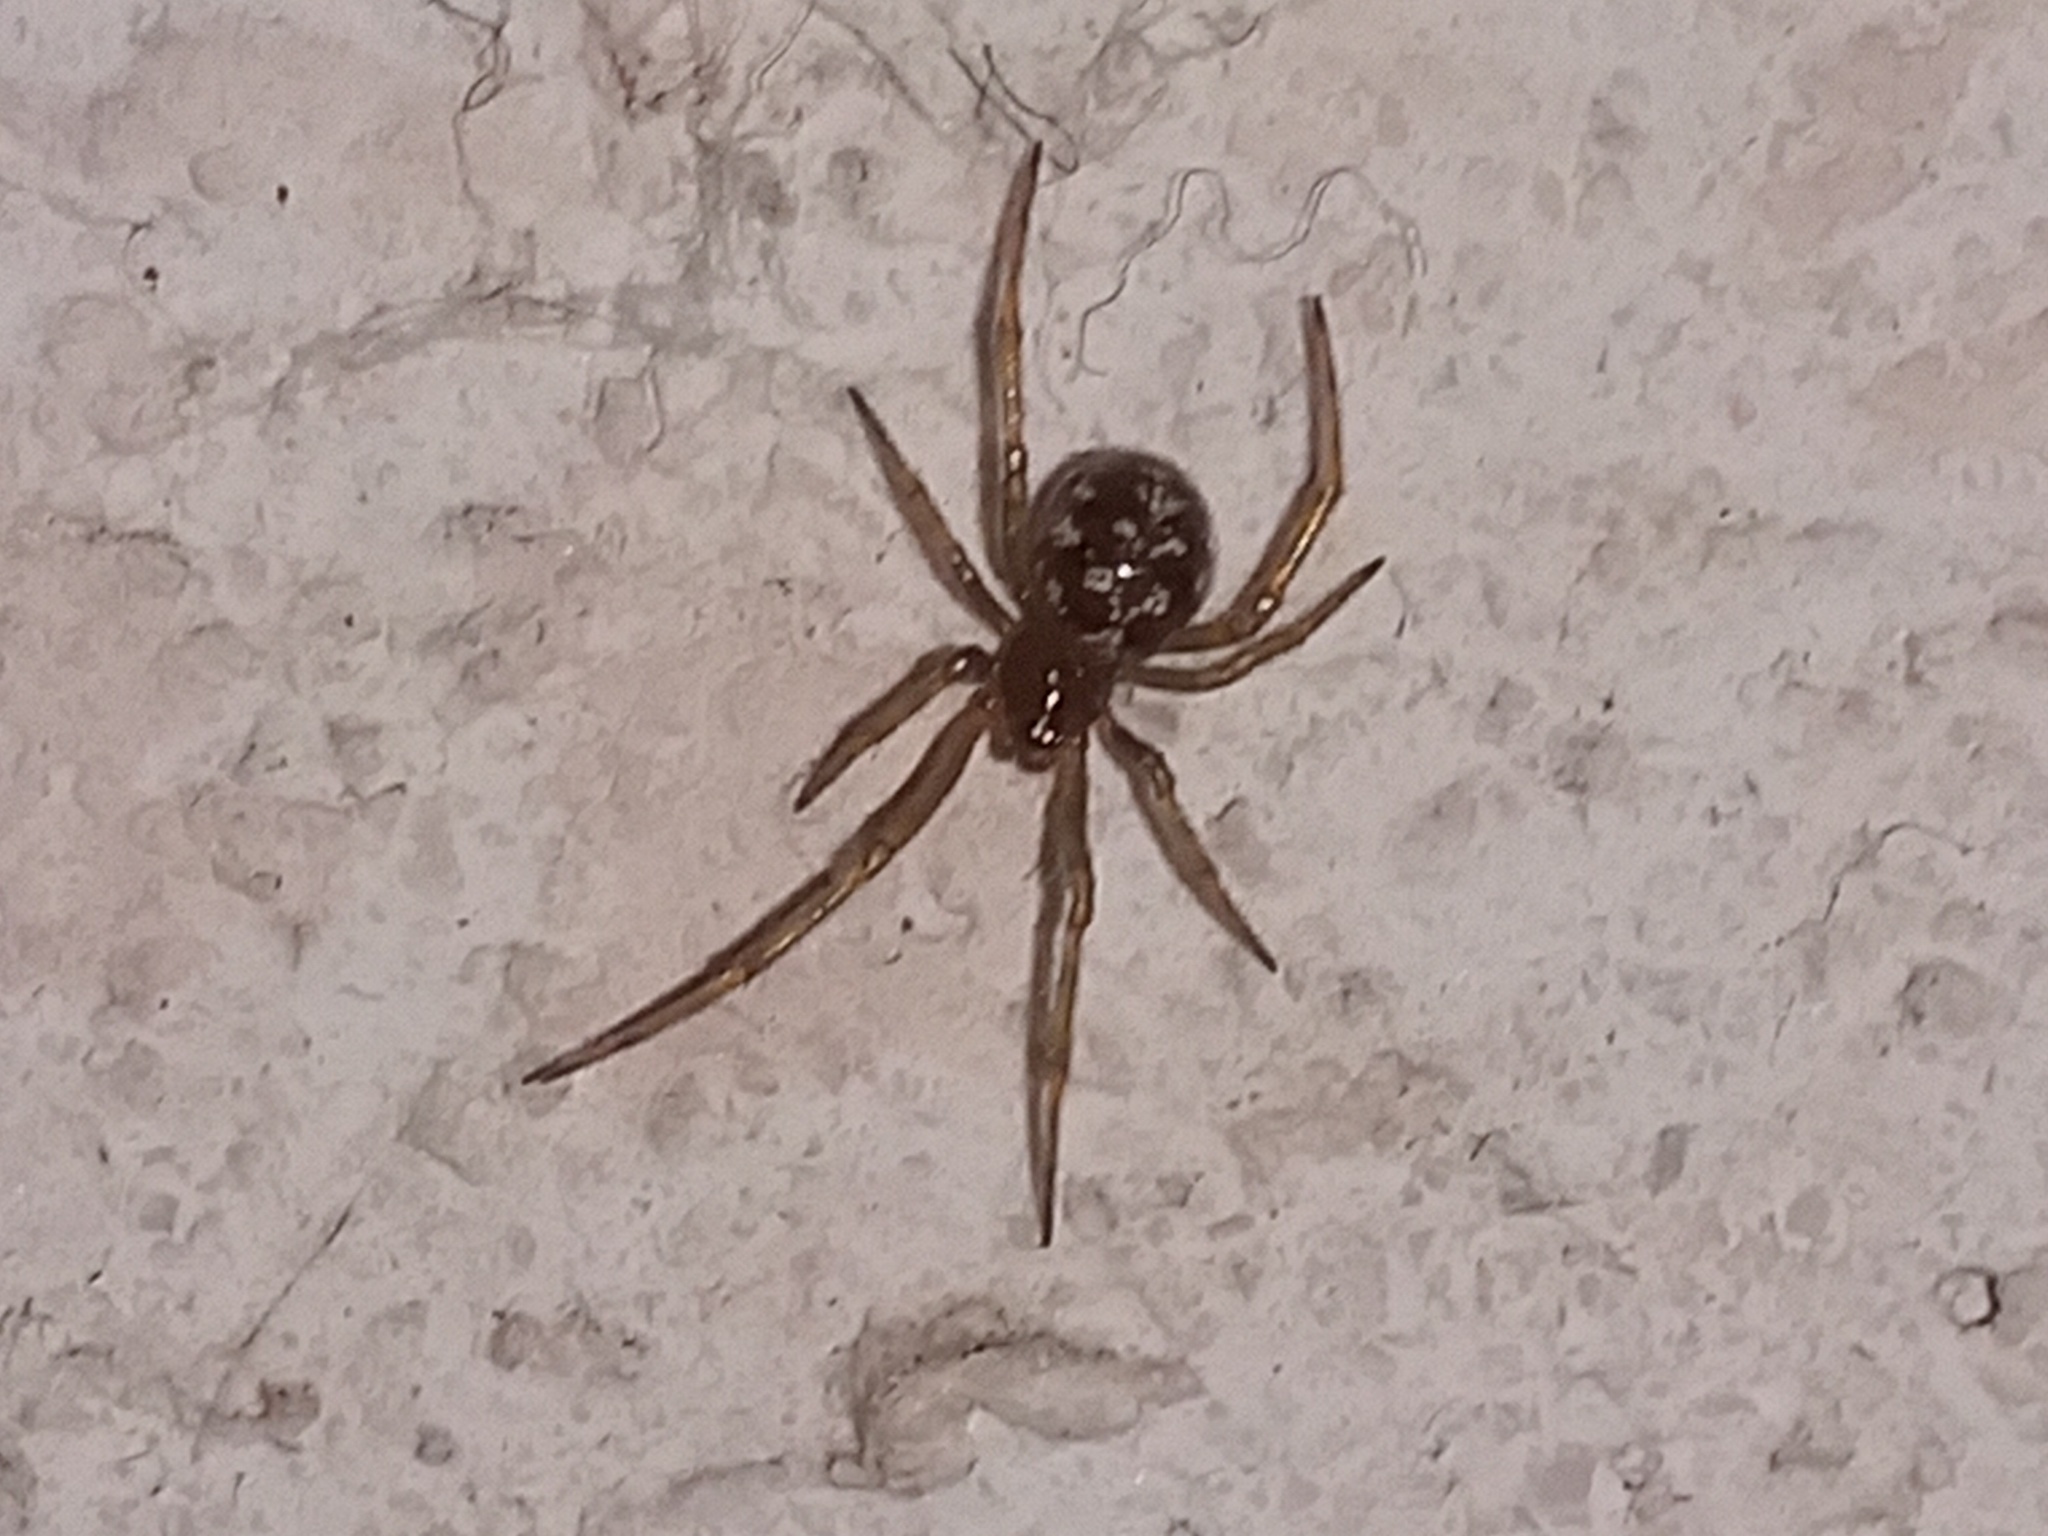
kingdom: Animalia
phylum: Arthropoda
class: Arachnida
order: Araneae
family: Theridiidae
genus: Steatoda
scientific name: Steatoda triangulosa
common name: Triangulate bud spider
